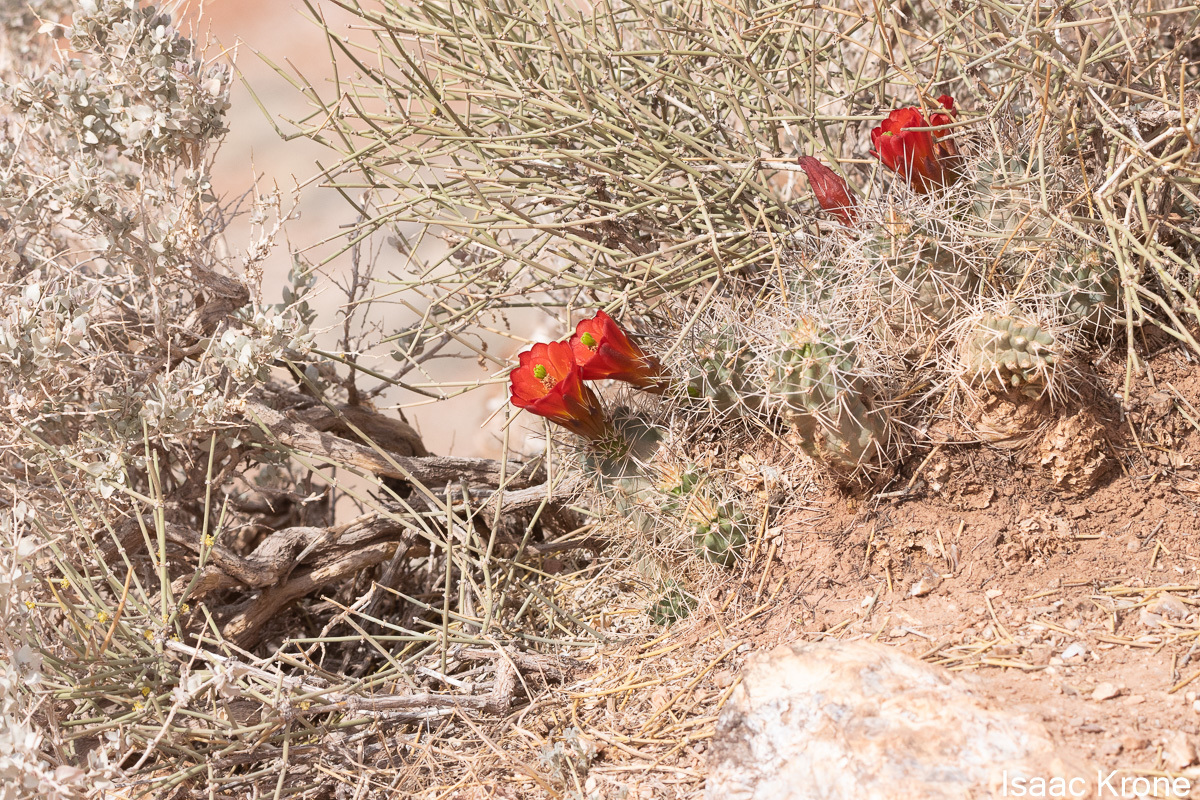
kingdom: Plantae
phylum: Tracheophyta
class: Magnoliopsida
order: Caryophyllales
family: Cactaceae
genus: Echinocereus
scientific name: Echinocereus triglochidiatus
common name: Claretcup hedgehog
